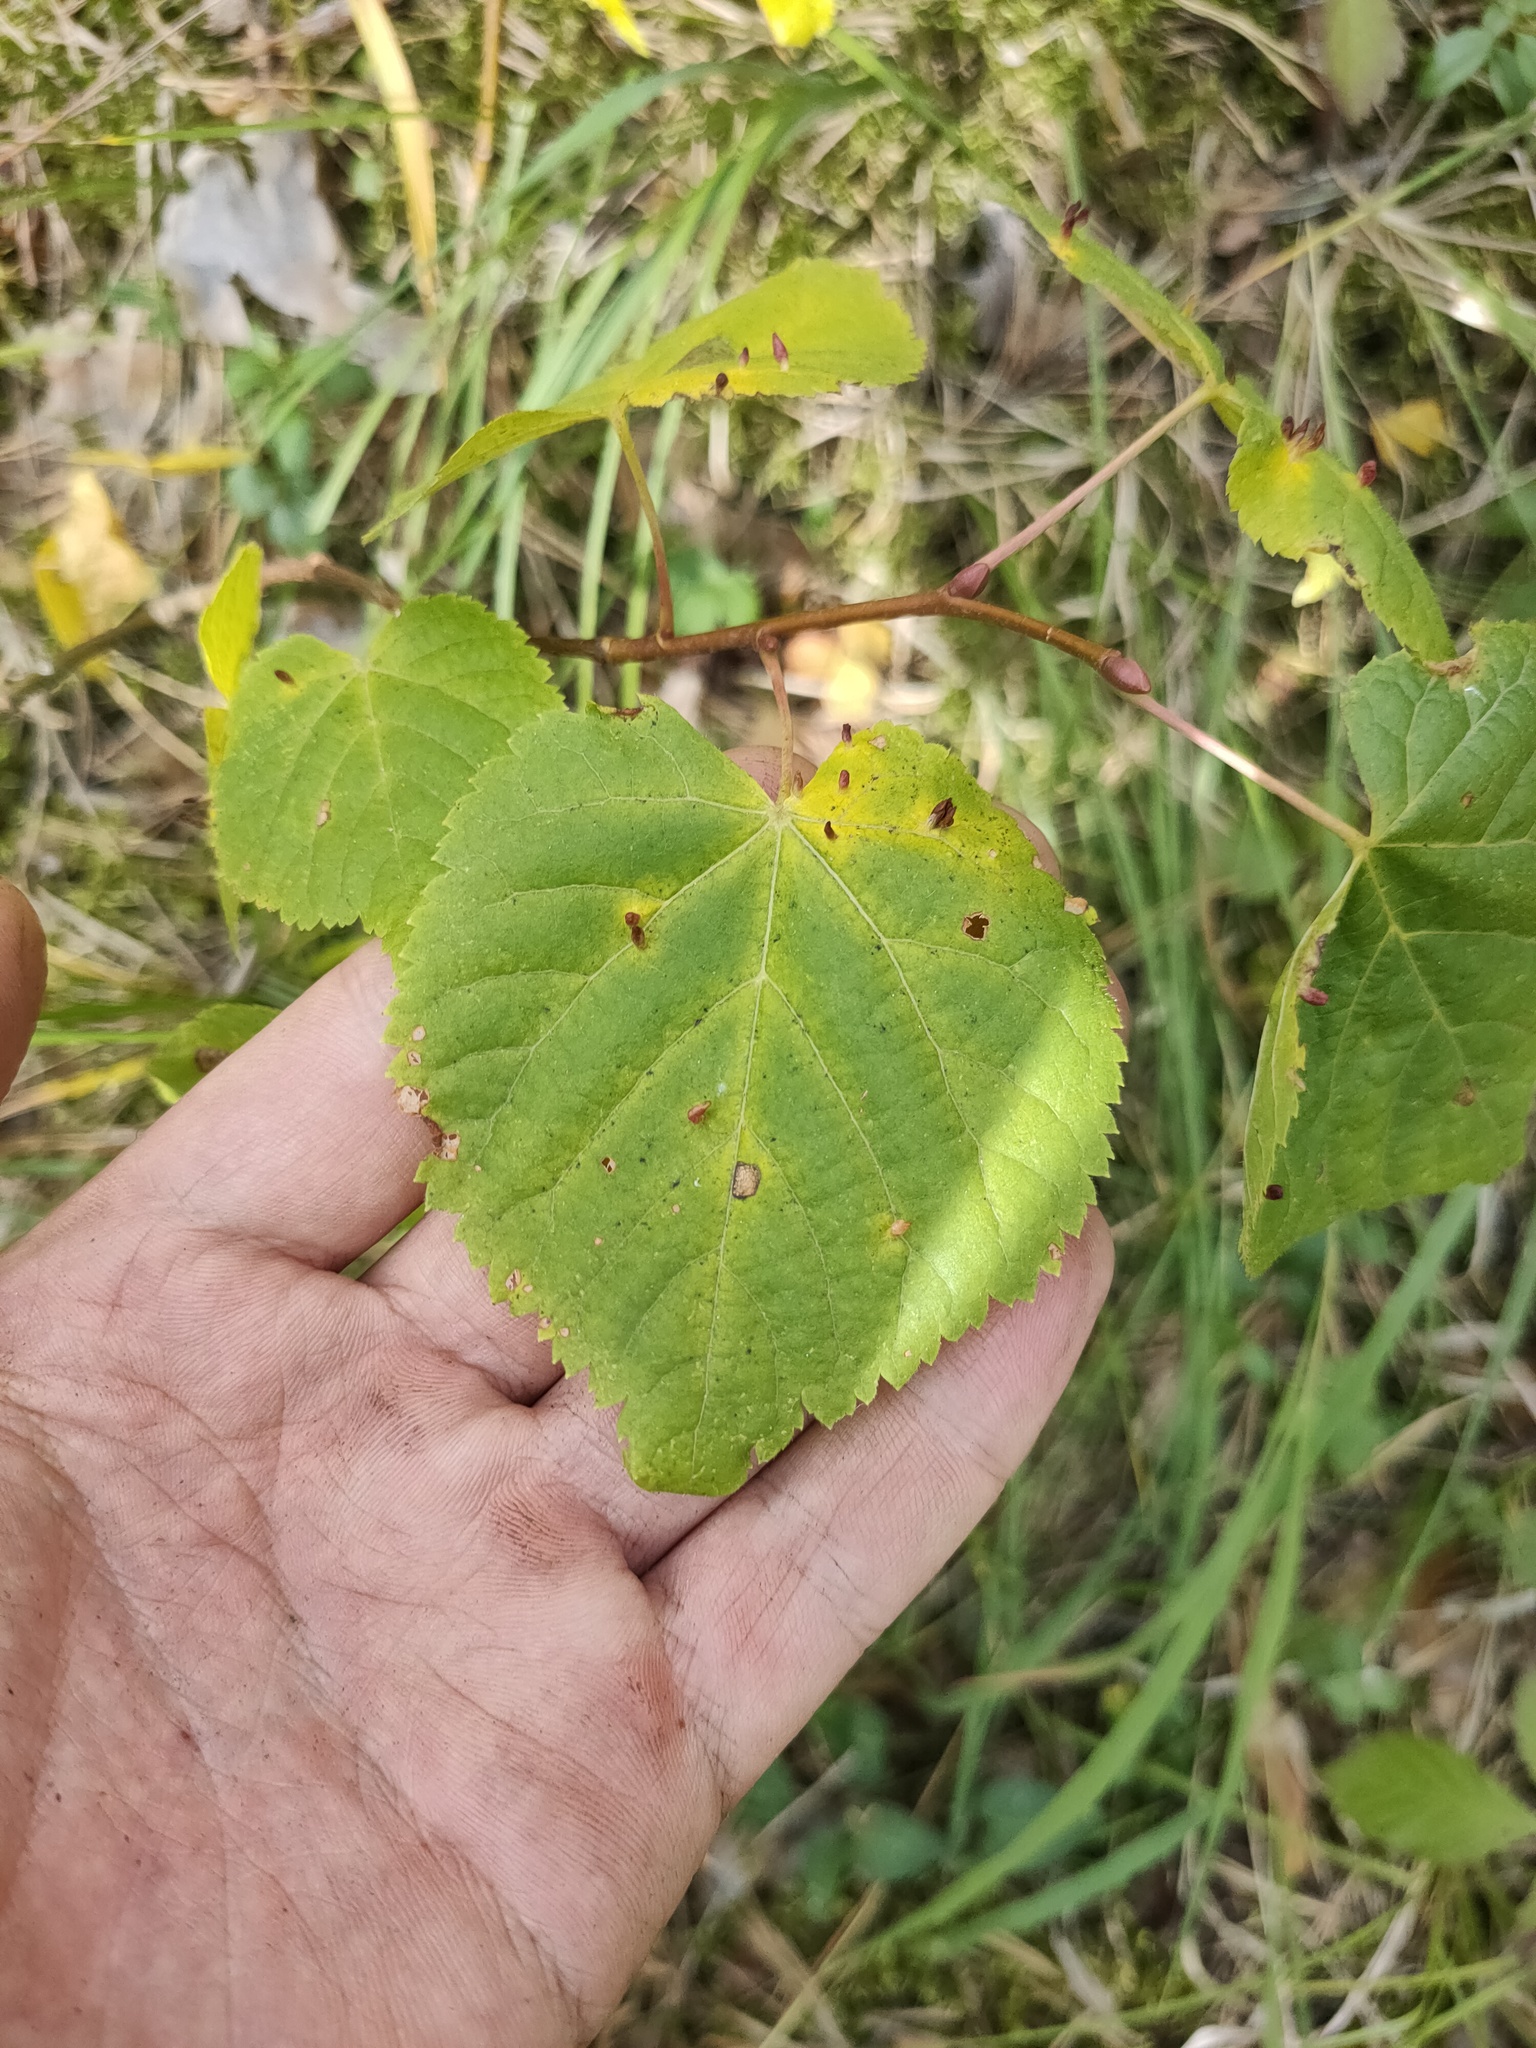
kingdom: Plantae
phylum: Tracheophyta
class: Magnoliopsida
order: Malvales
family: Malvaceae
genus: Tilia
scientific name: Tilia cordata
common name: Small-leaved lime
